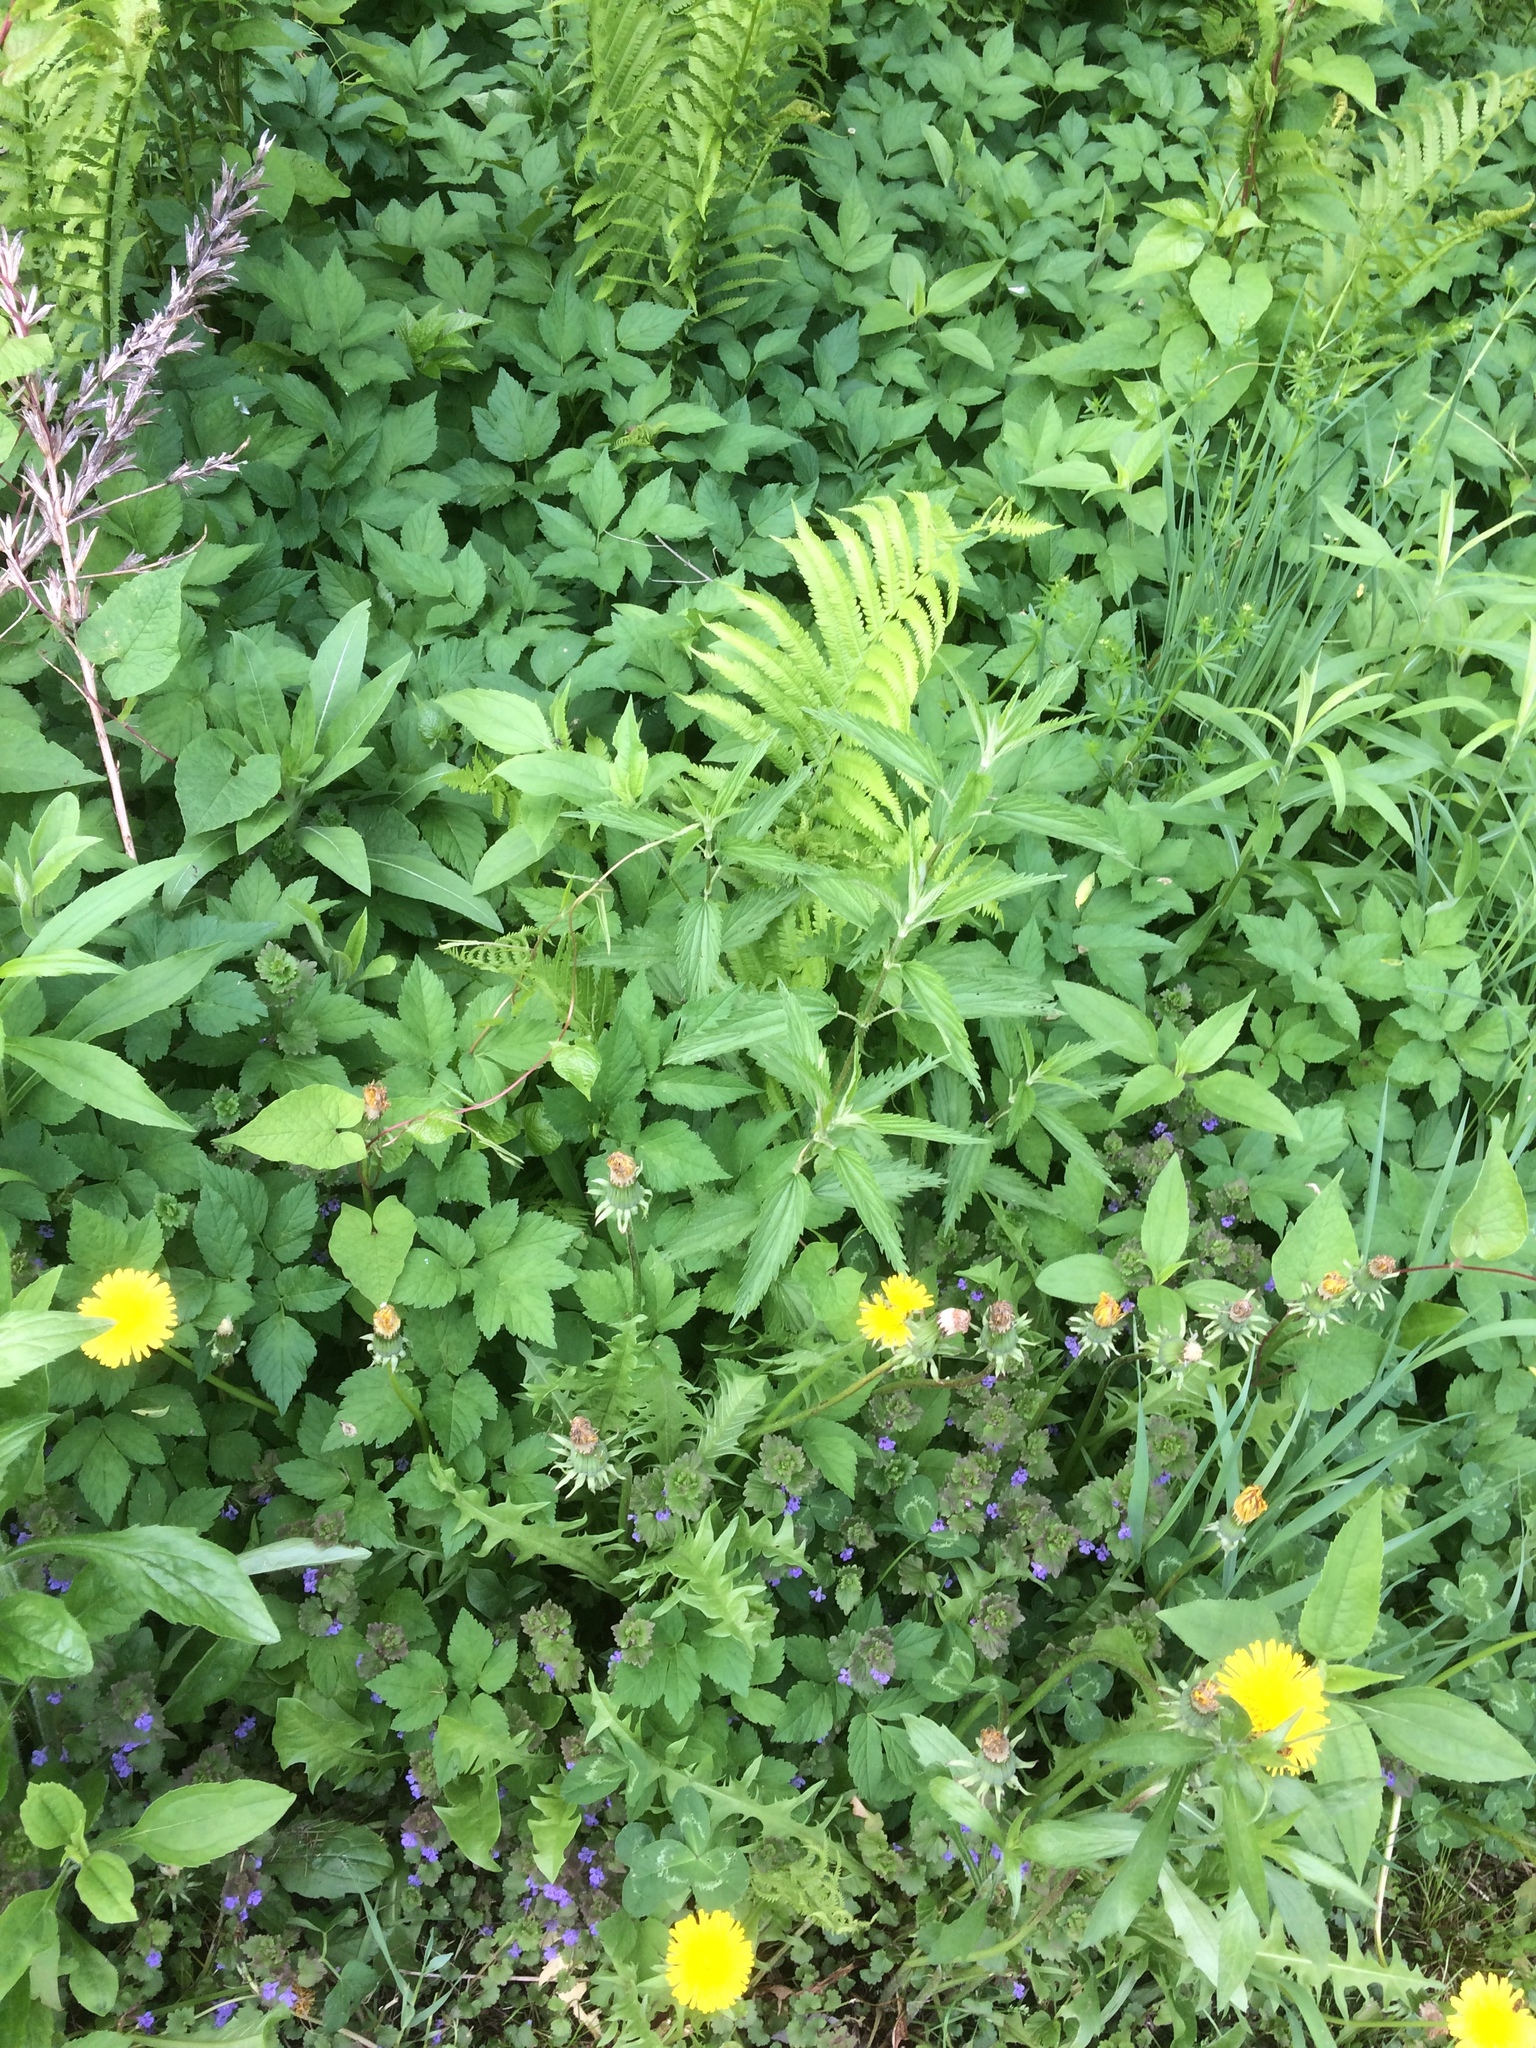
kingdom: Plantae
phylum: Tracheophyta
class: Magnoliopsida
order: Rosales
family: Urticaceae
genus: Urtica
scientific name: Urtica dioica
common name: Common nettle
